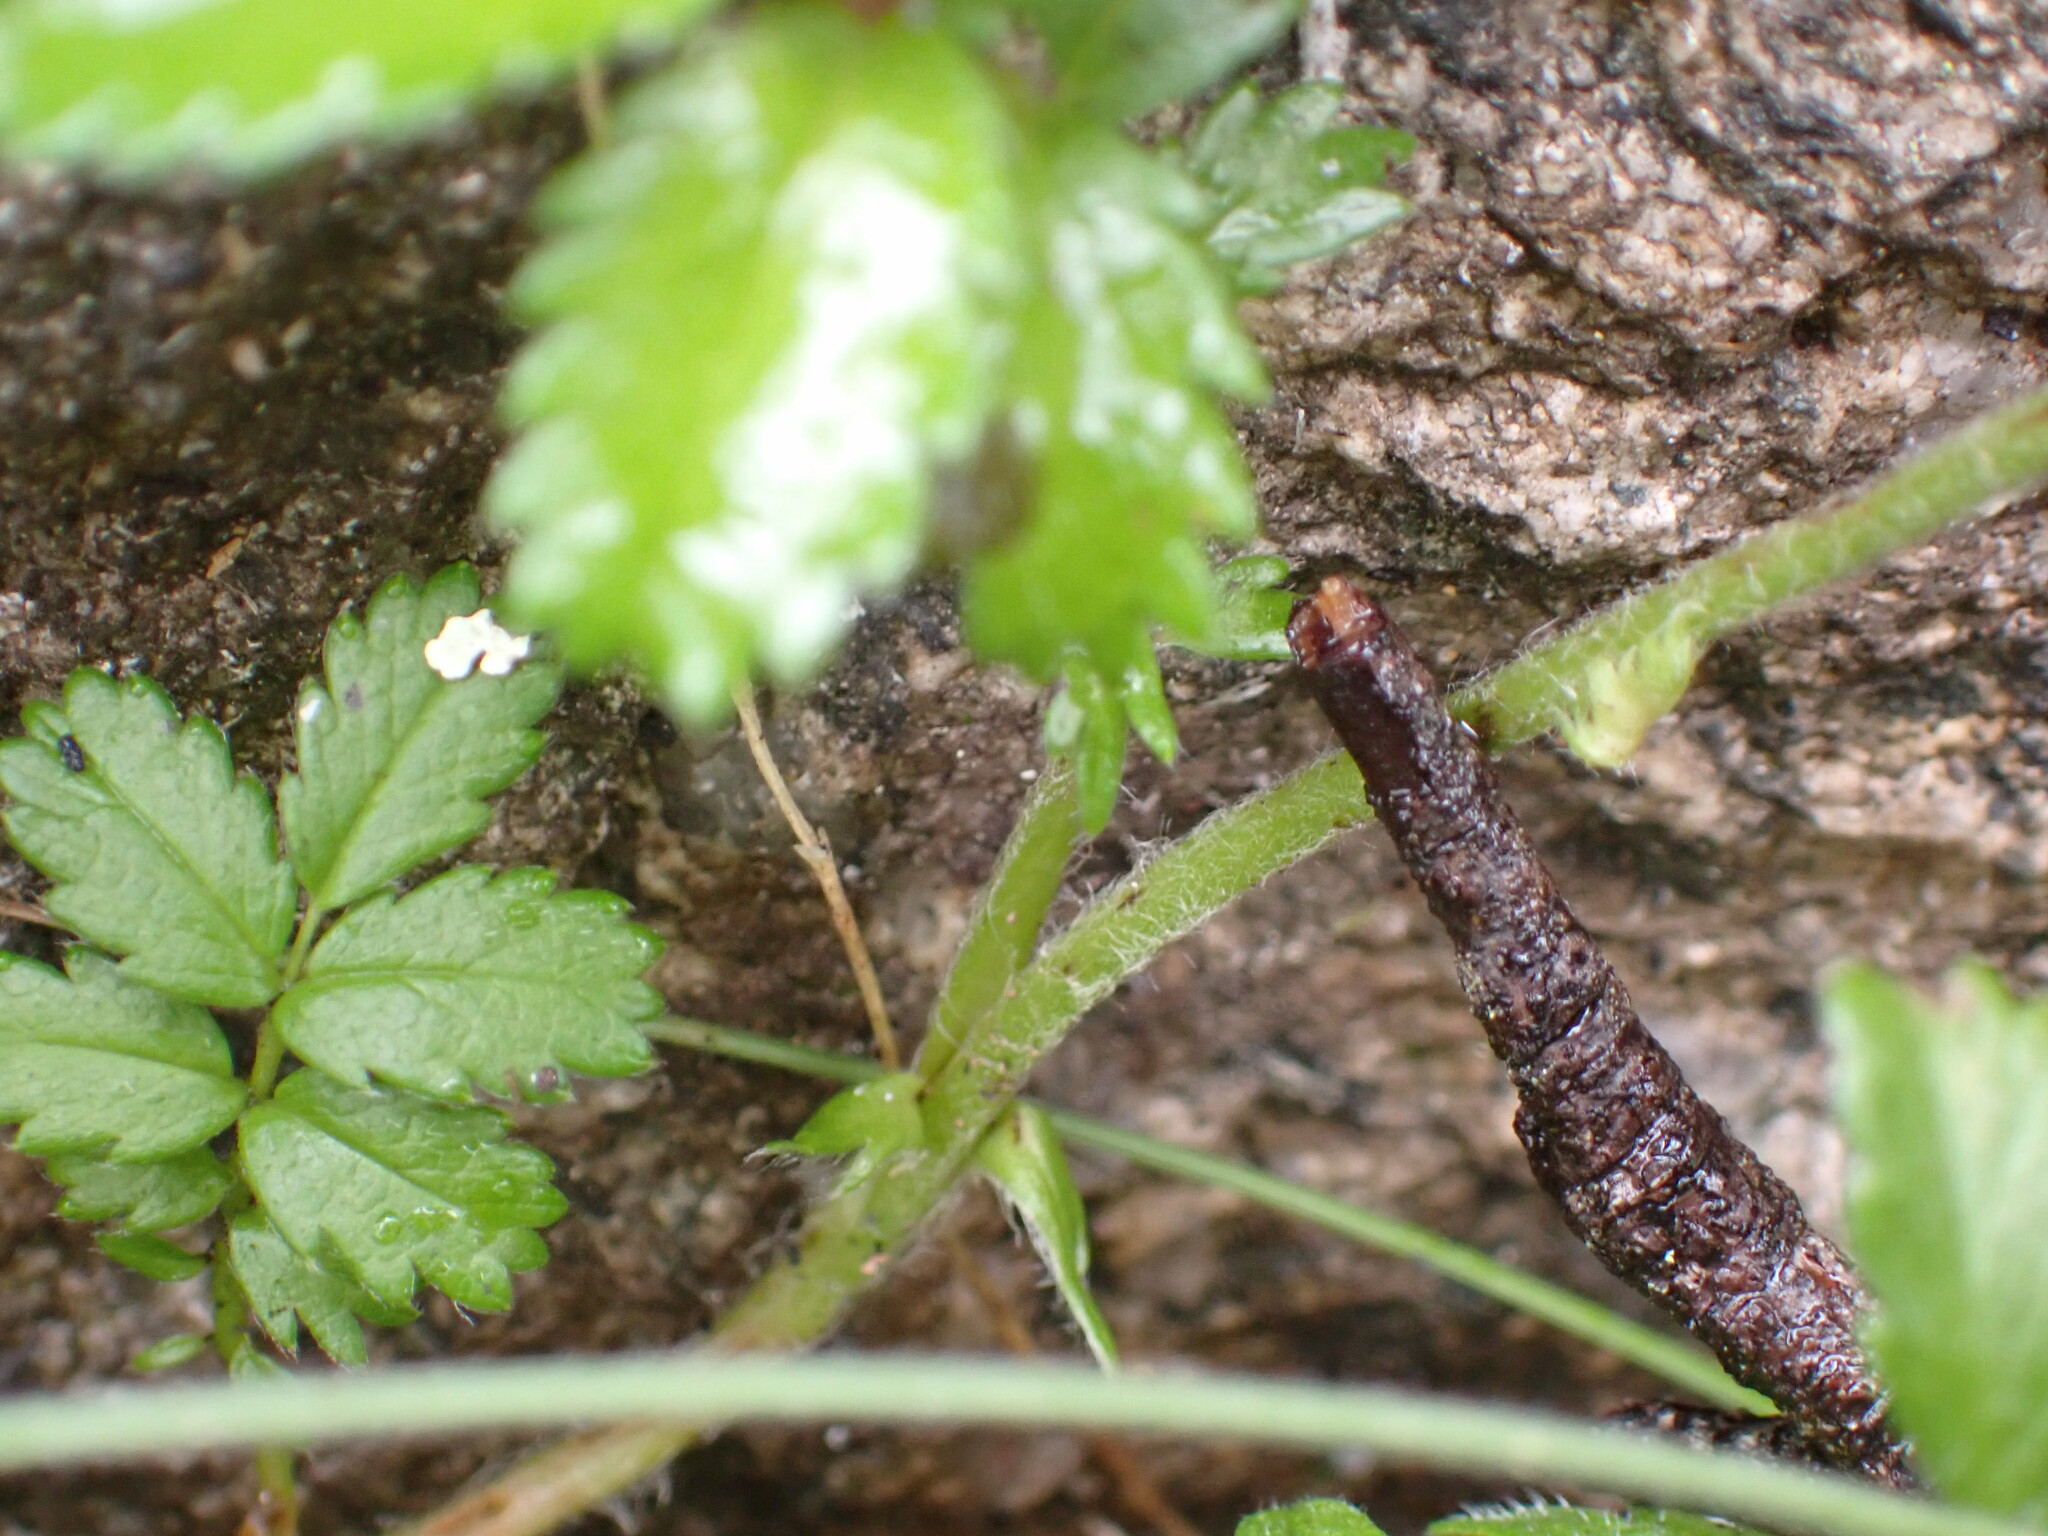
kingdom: Plantae
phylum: Tracheophyta
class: Magnoliopsida
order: Rosales
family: Rosaceae
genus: Acaena
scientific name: Acaena novae-zelandiae
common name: Pirri-pirri-bur
